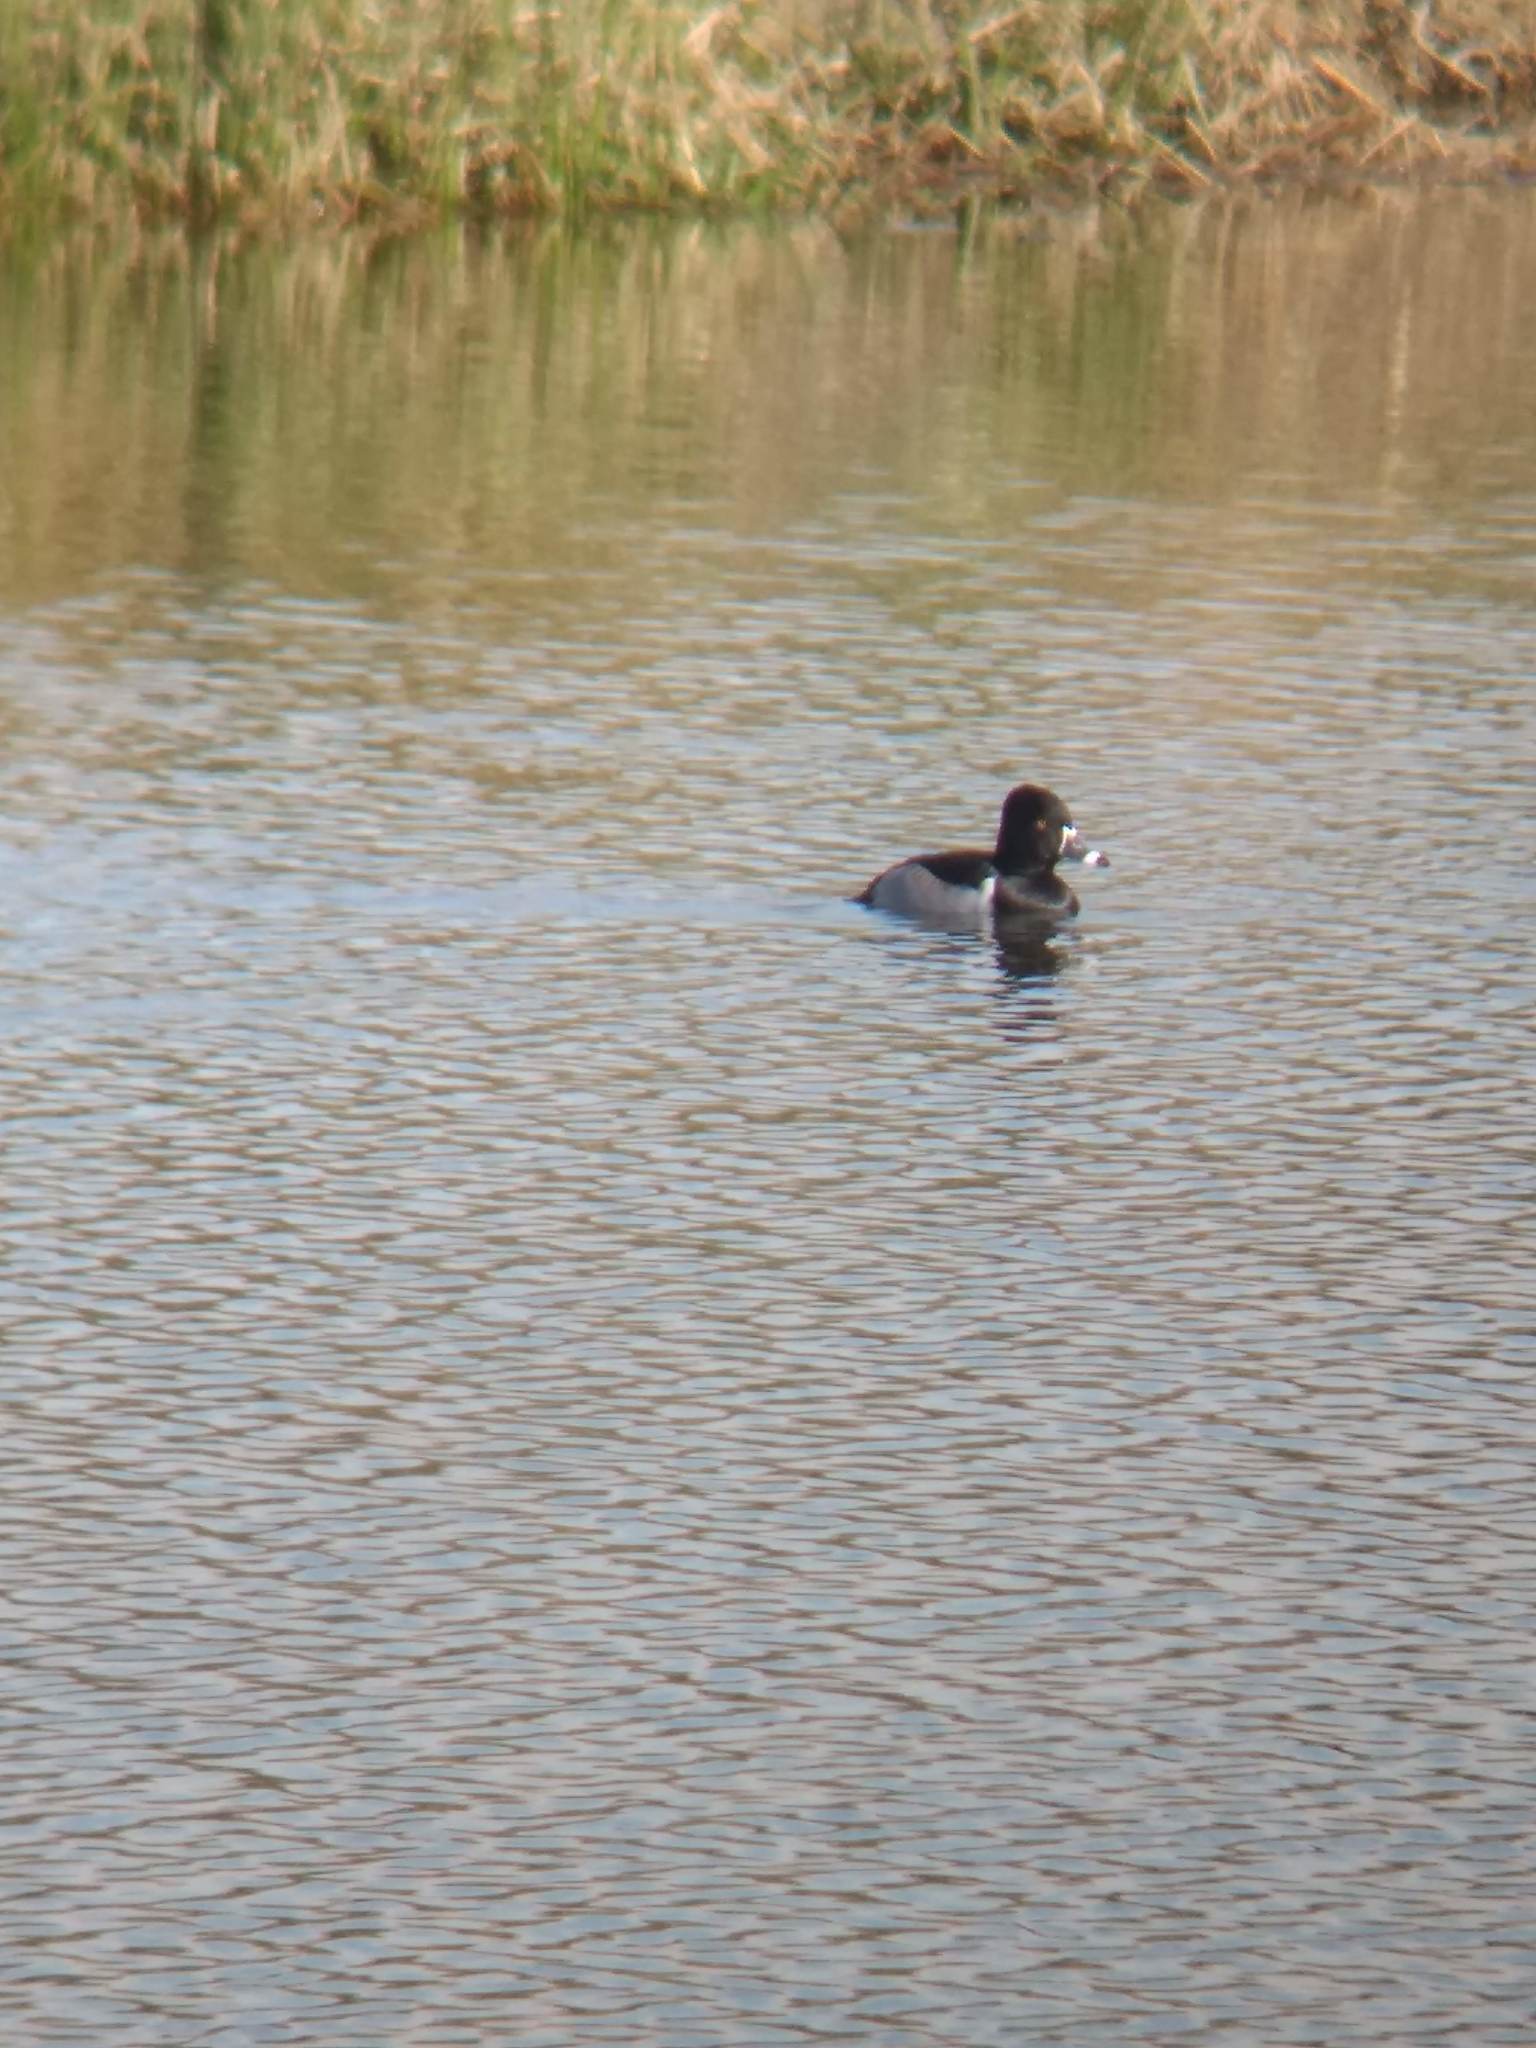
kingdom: Animalia
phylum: Chordata
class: Aves
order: Anseriformes
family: Anatidae
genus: Aythya
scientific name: Aythya collaris
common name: Ring-necked duck
